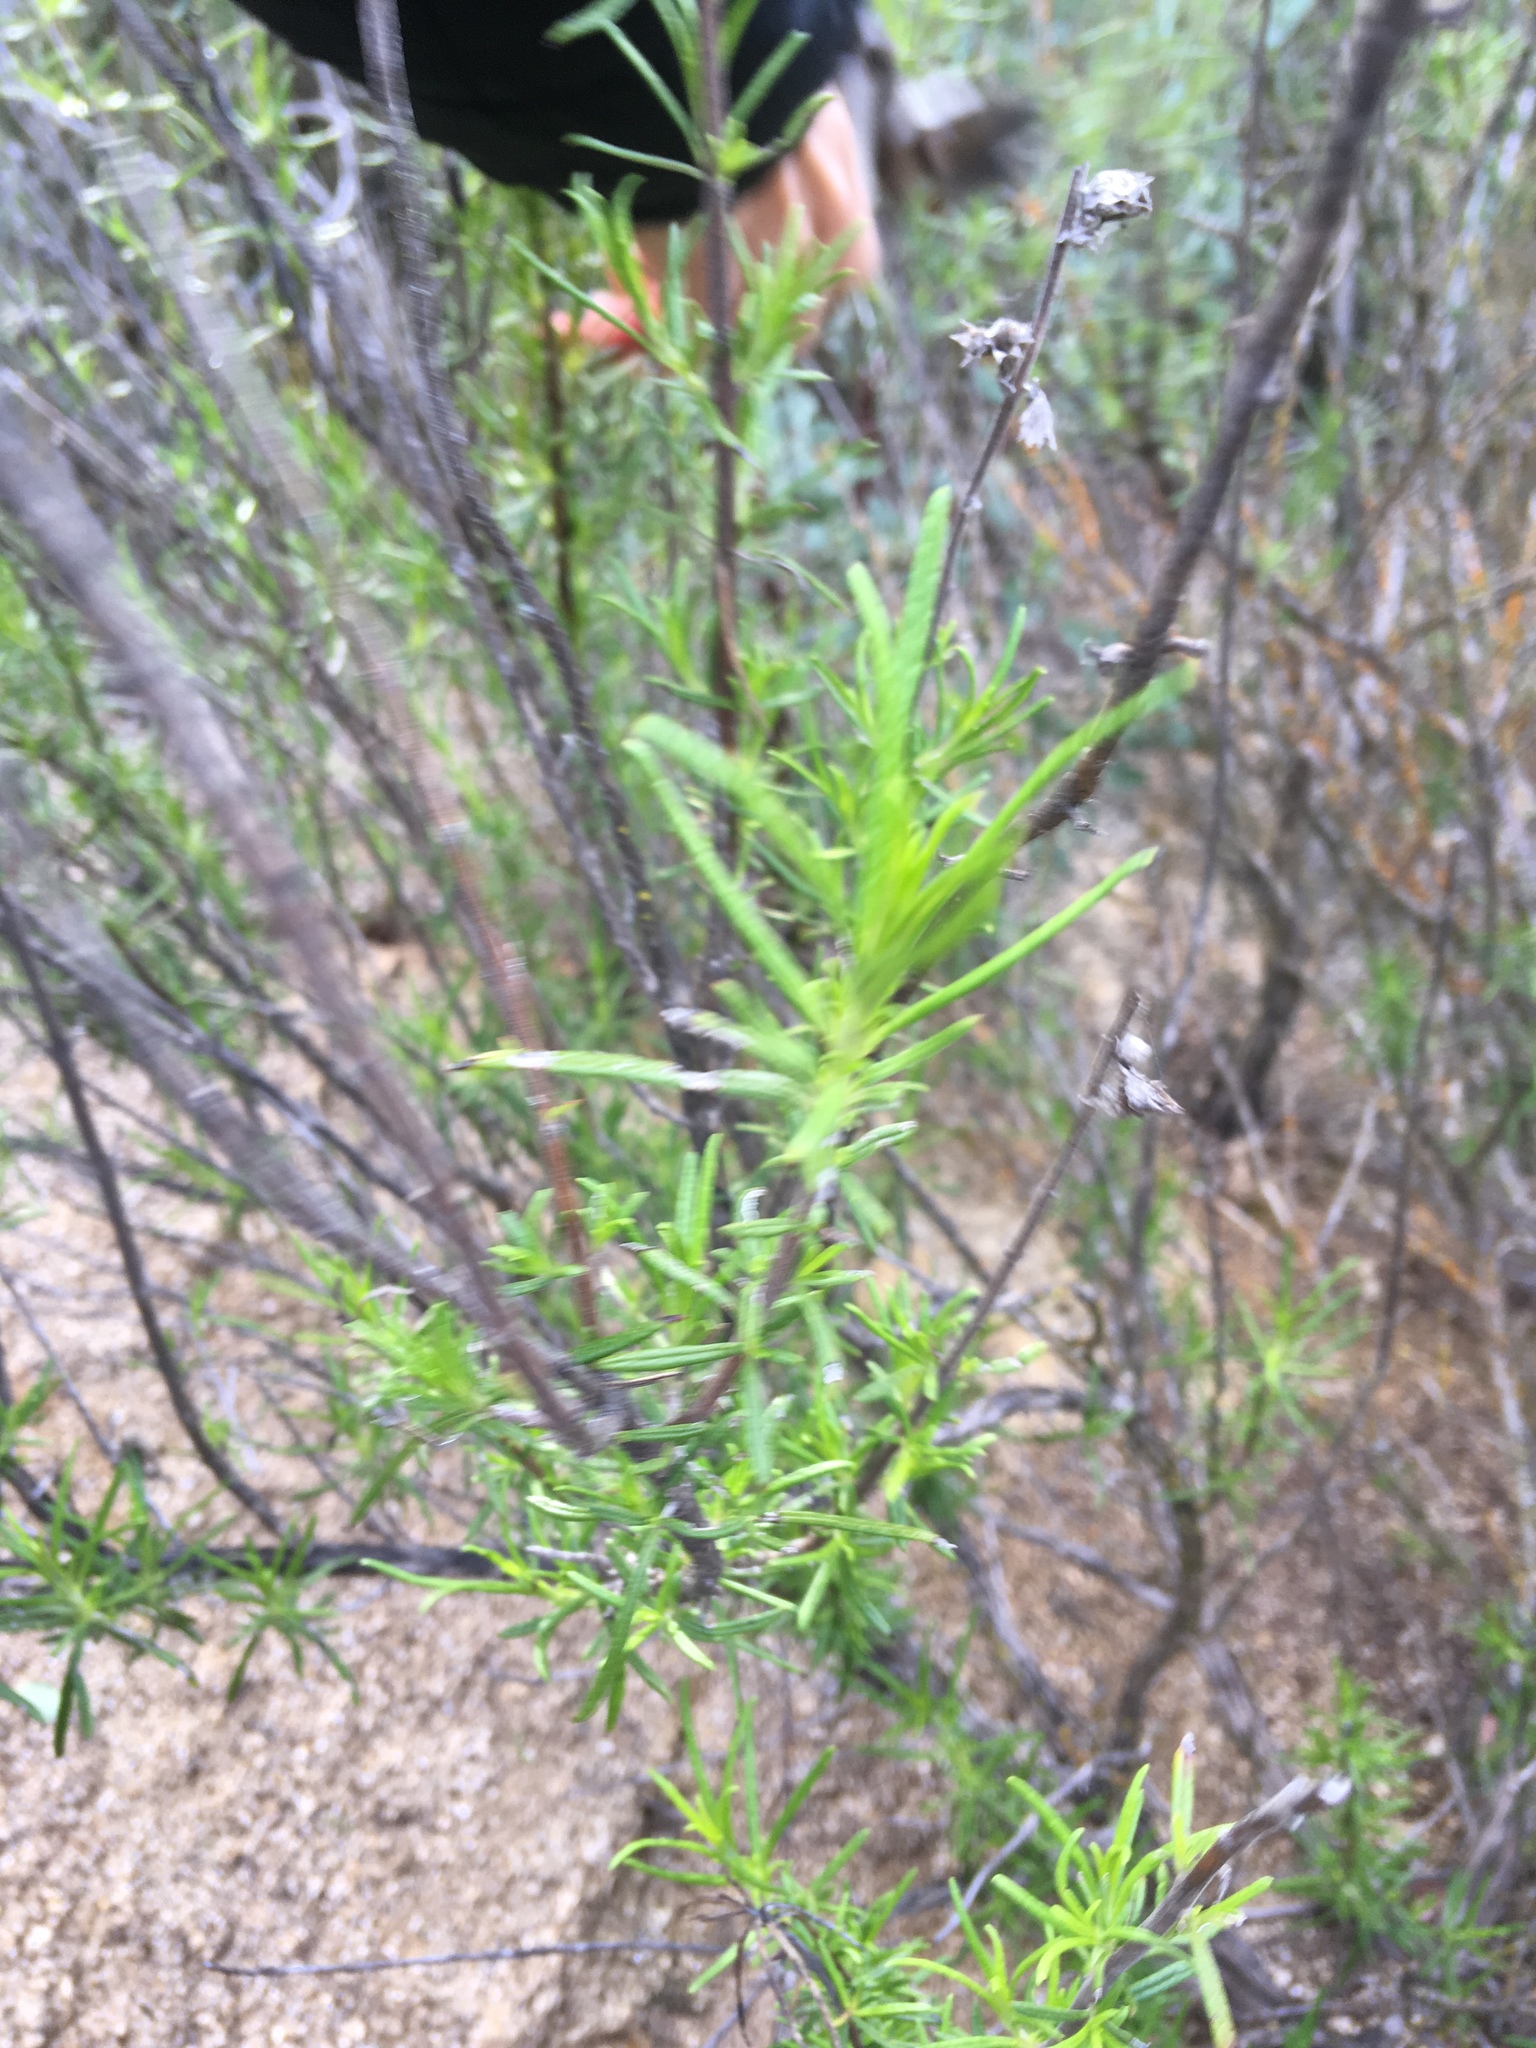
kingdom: Plantae
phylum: Tracheophyta
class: Magnoliopsida
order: Lamiales
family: Lamiaceae
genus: Trichostema
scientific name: Trichostema lanatum
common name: Woolly bluecurls
